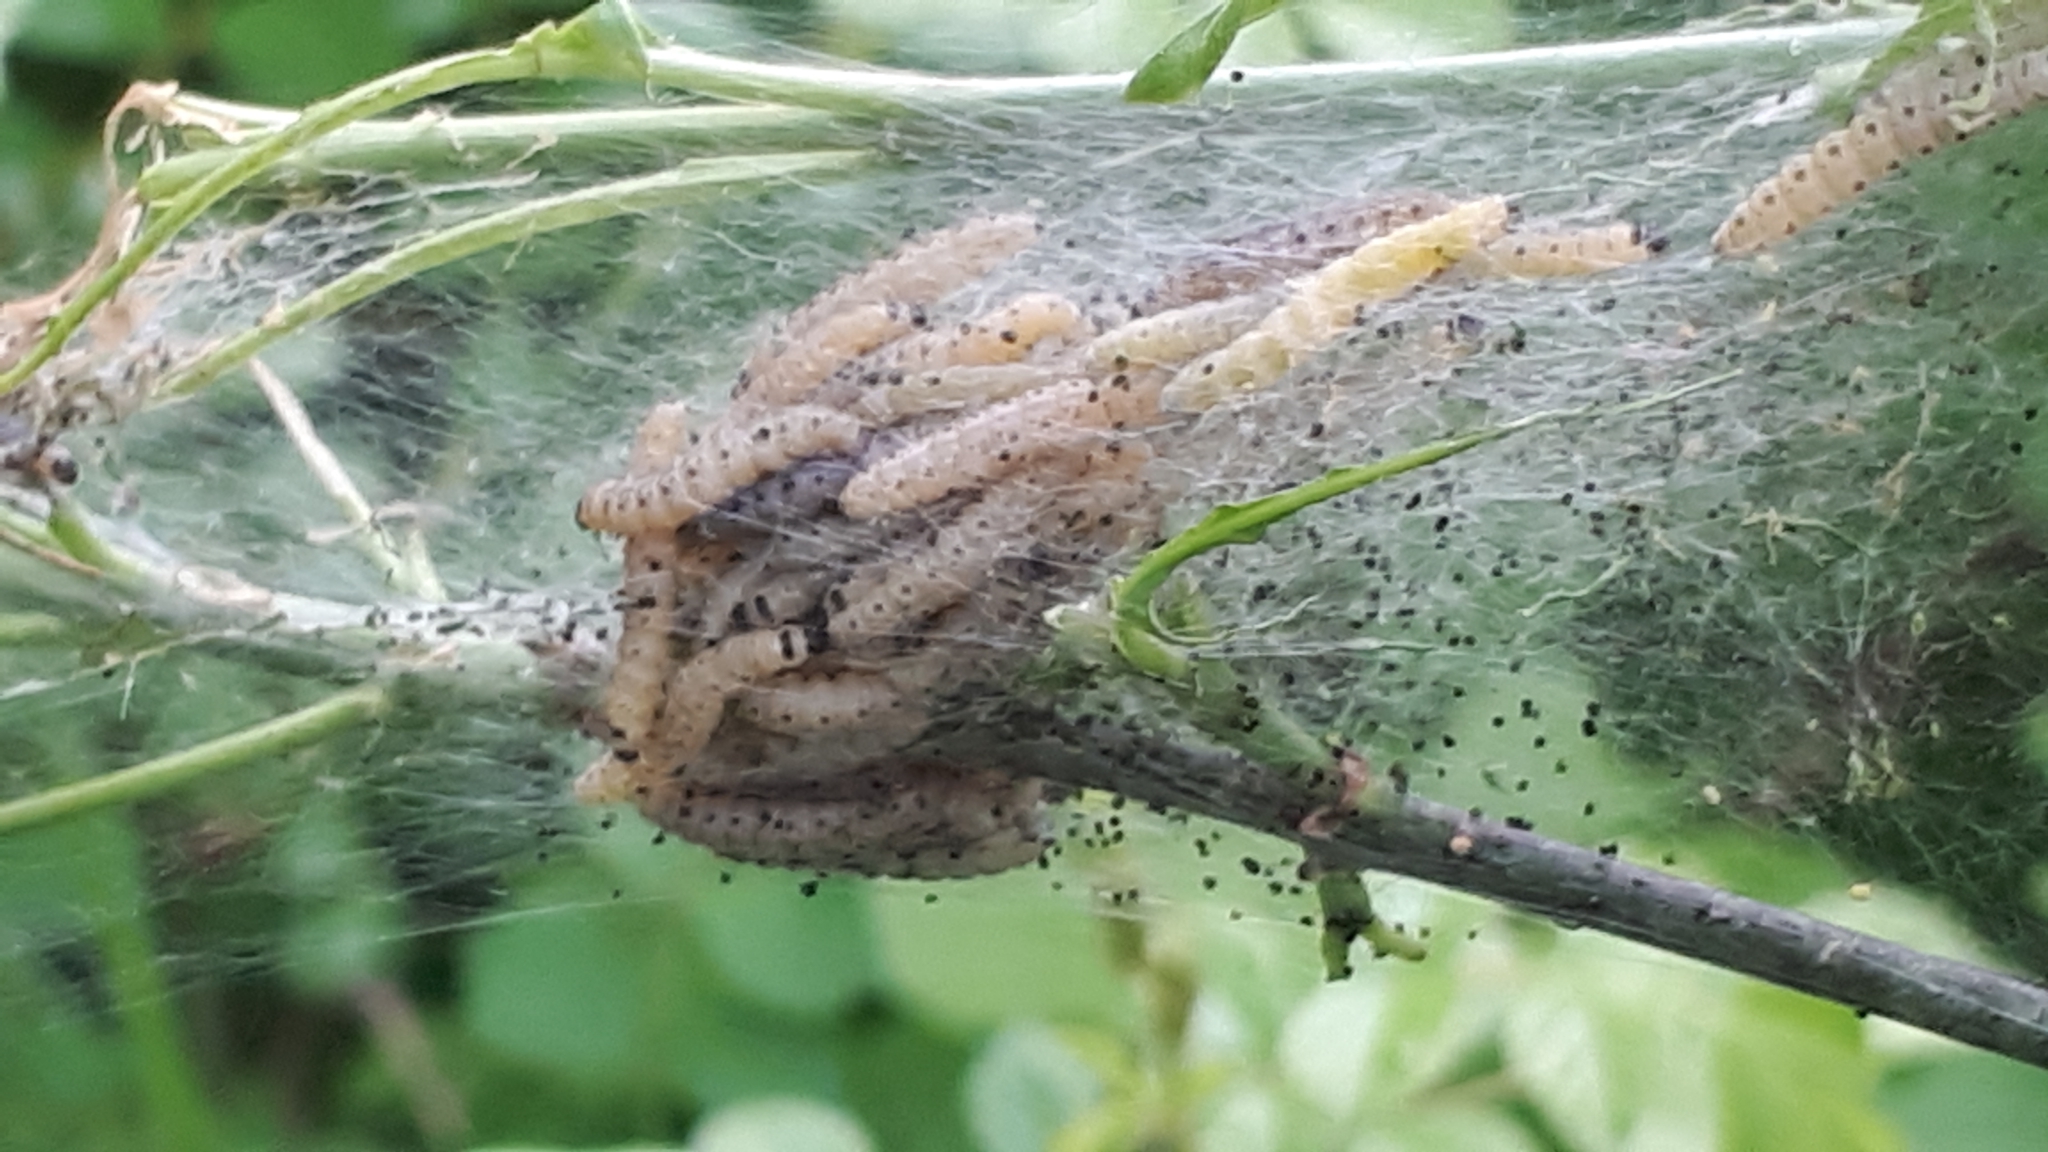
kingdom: Animalia
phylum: Arthropoda
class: Insecta
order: Lepidoptera
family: Yponomeutidae
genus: Yponomeuta
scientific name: Yponomeuta cagnagellus
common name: Spindle ermine
